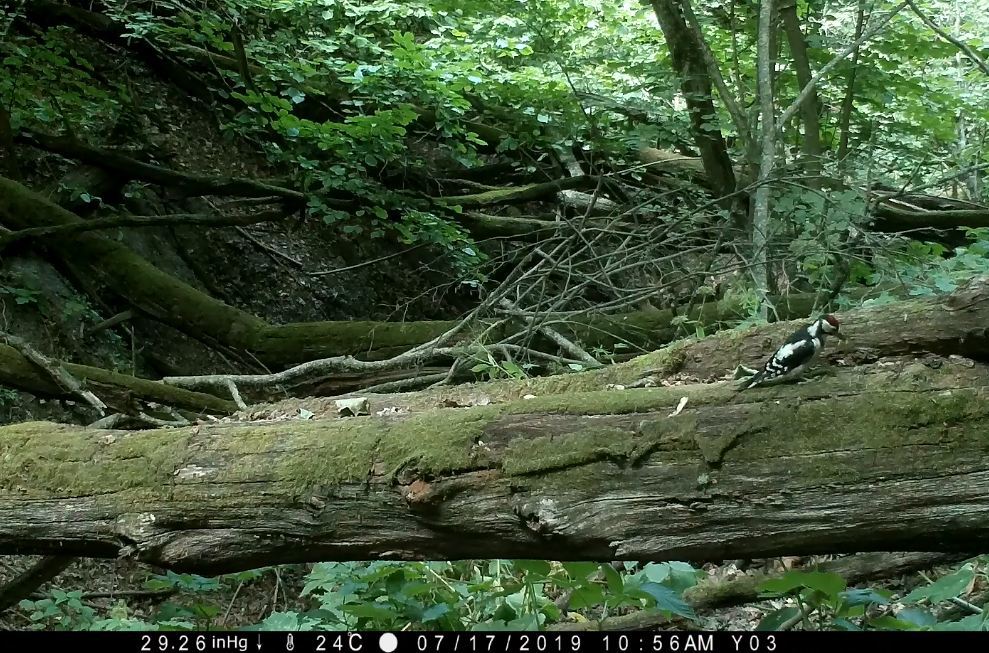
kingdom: Animalia
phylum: Chordata
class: Aves
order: Piciformes
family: Picidae
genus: Dendrocopos
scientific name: Dendrocopos major
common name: Great spotted woodpecker
